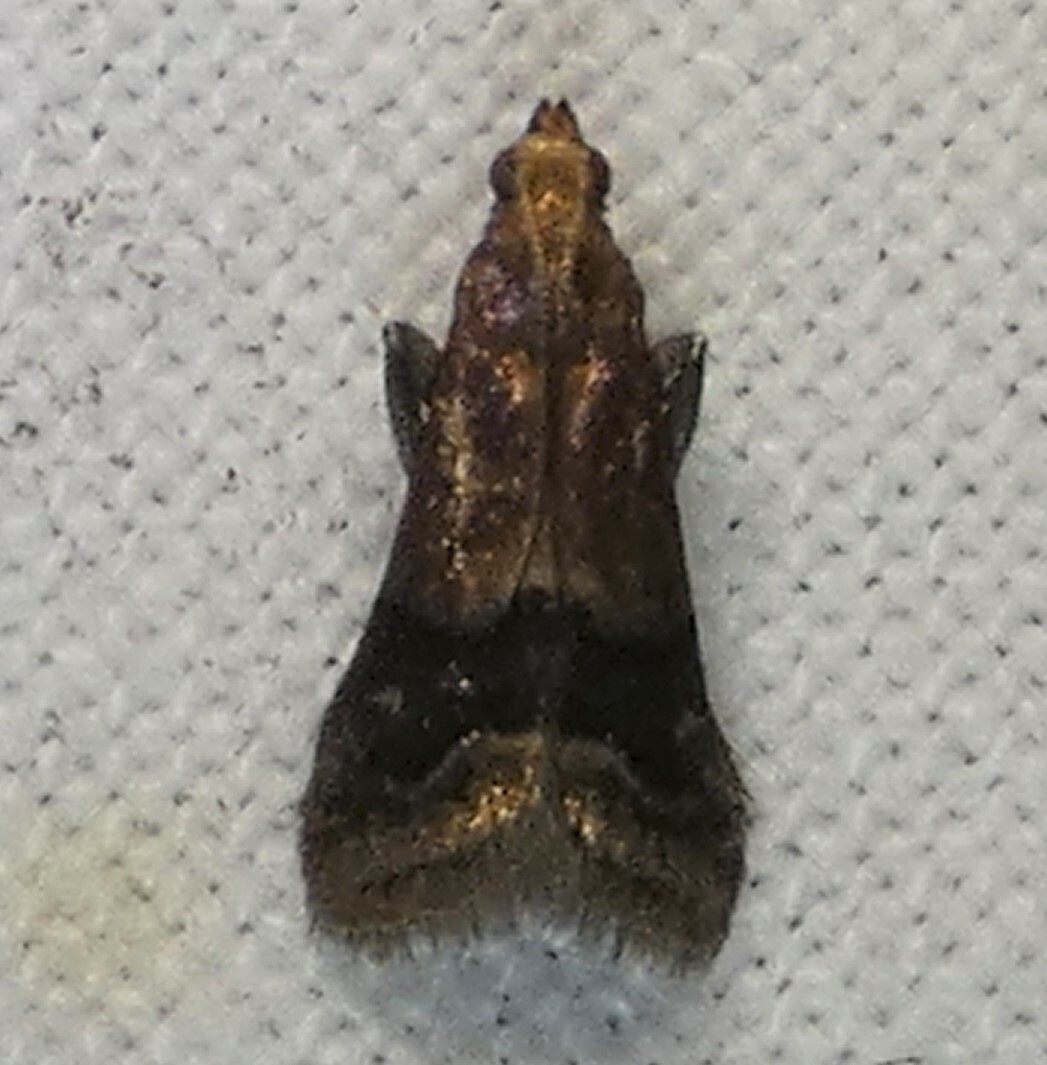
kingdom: Animalia
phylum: Arthropoda
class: Insecta
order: Lepidoptera
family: Pyralidae
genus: Eulogia
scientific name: Eulogia ochrifrontella
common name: Broad-banded eulogia moth
